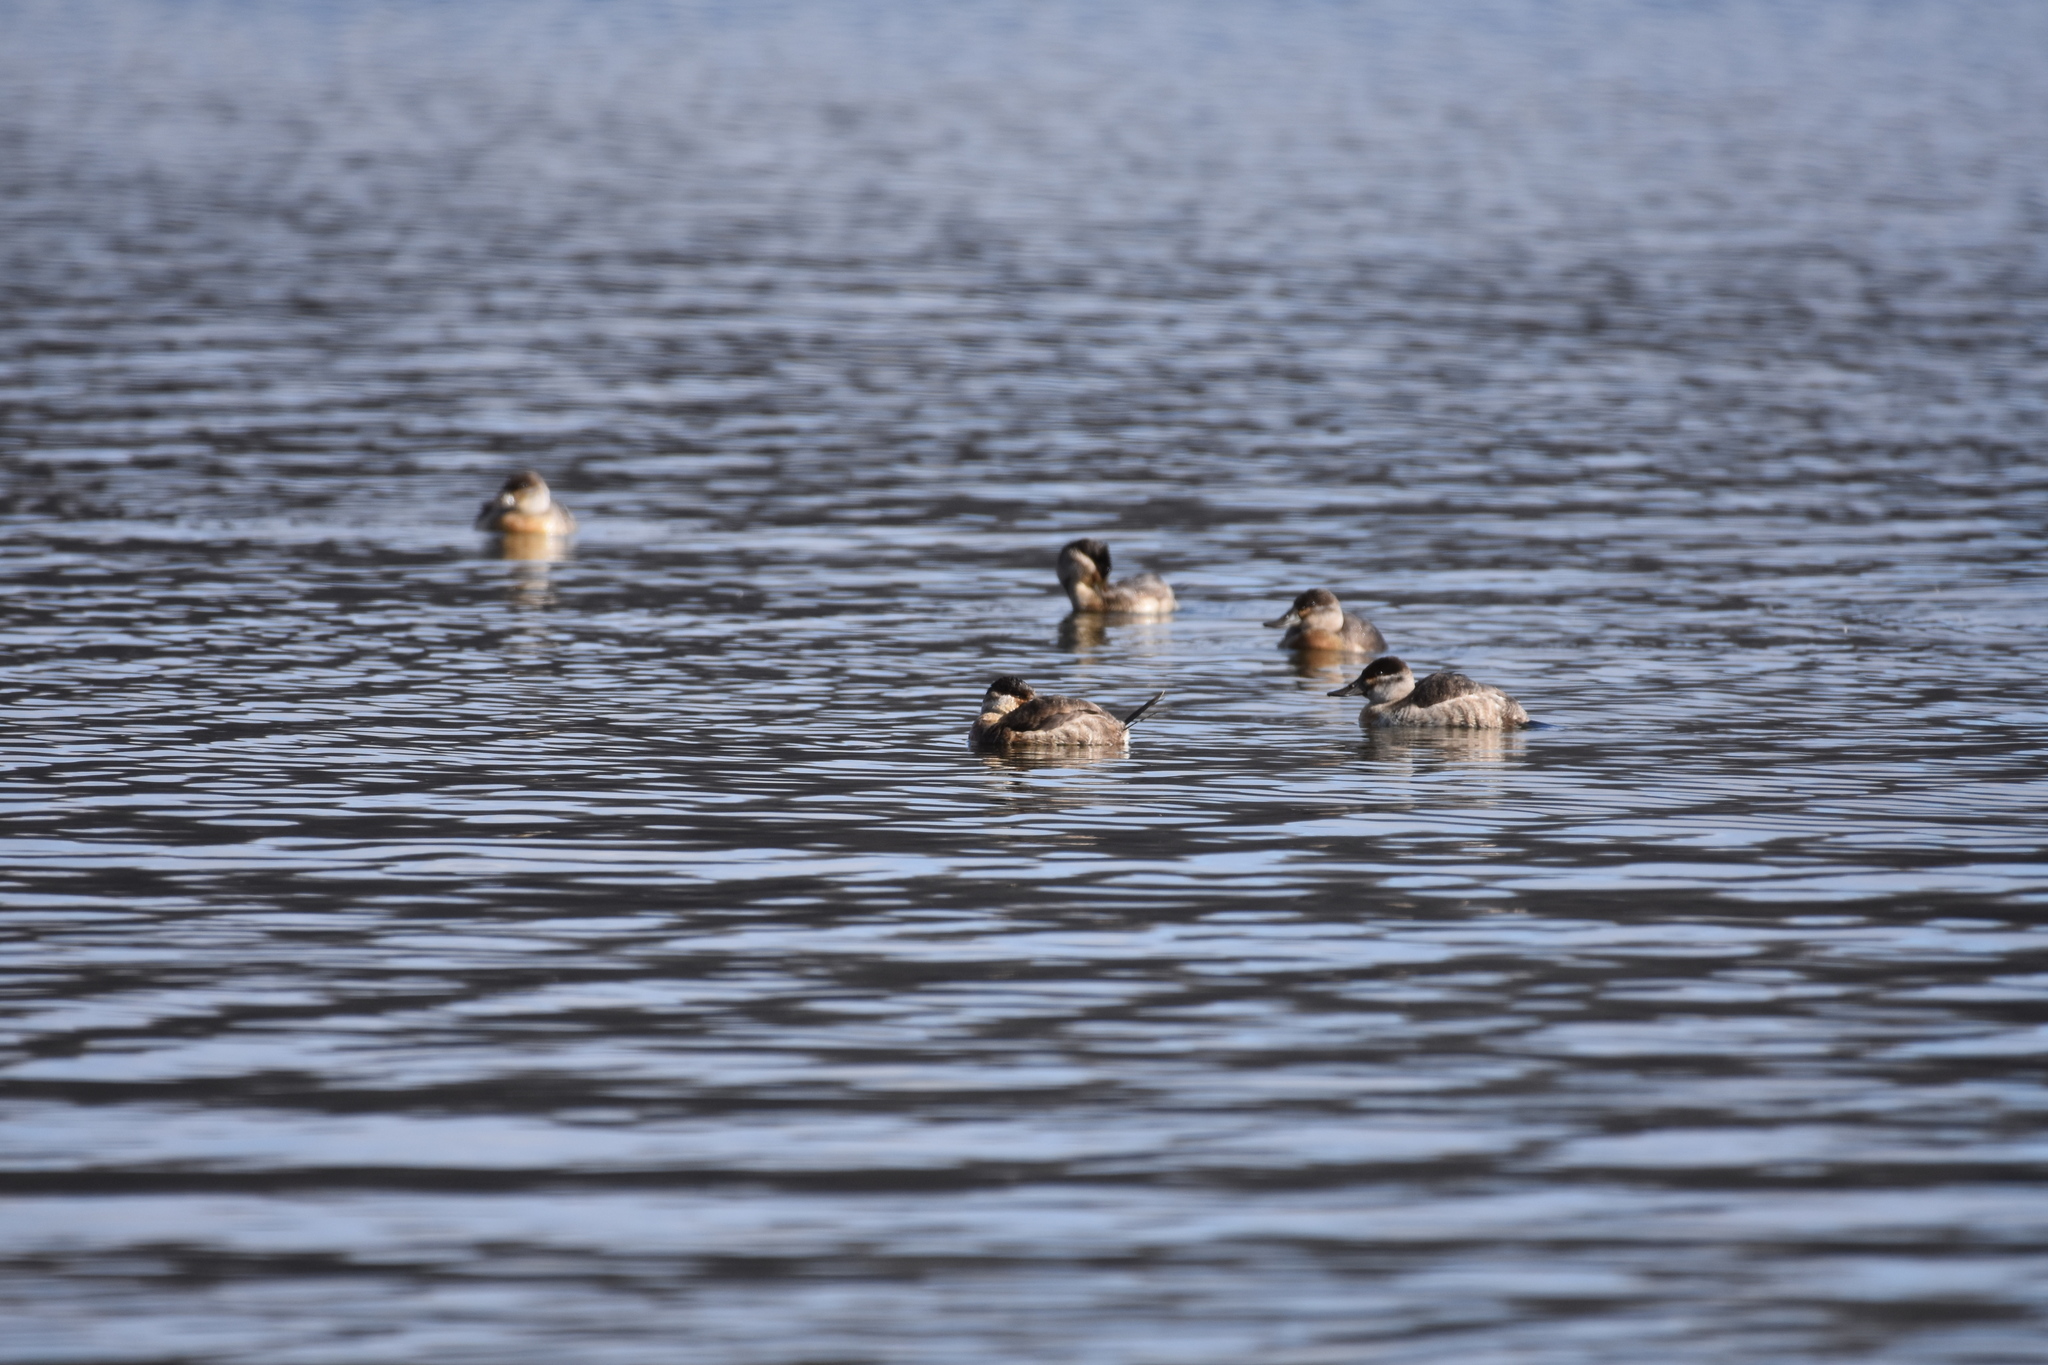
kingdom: Animalia
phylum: Chordata
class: Aves
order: Anseriformes
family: Anatidae
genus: Oxyura
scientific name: Oxyura jamaicensis
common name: Ruddy duck
